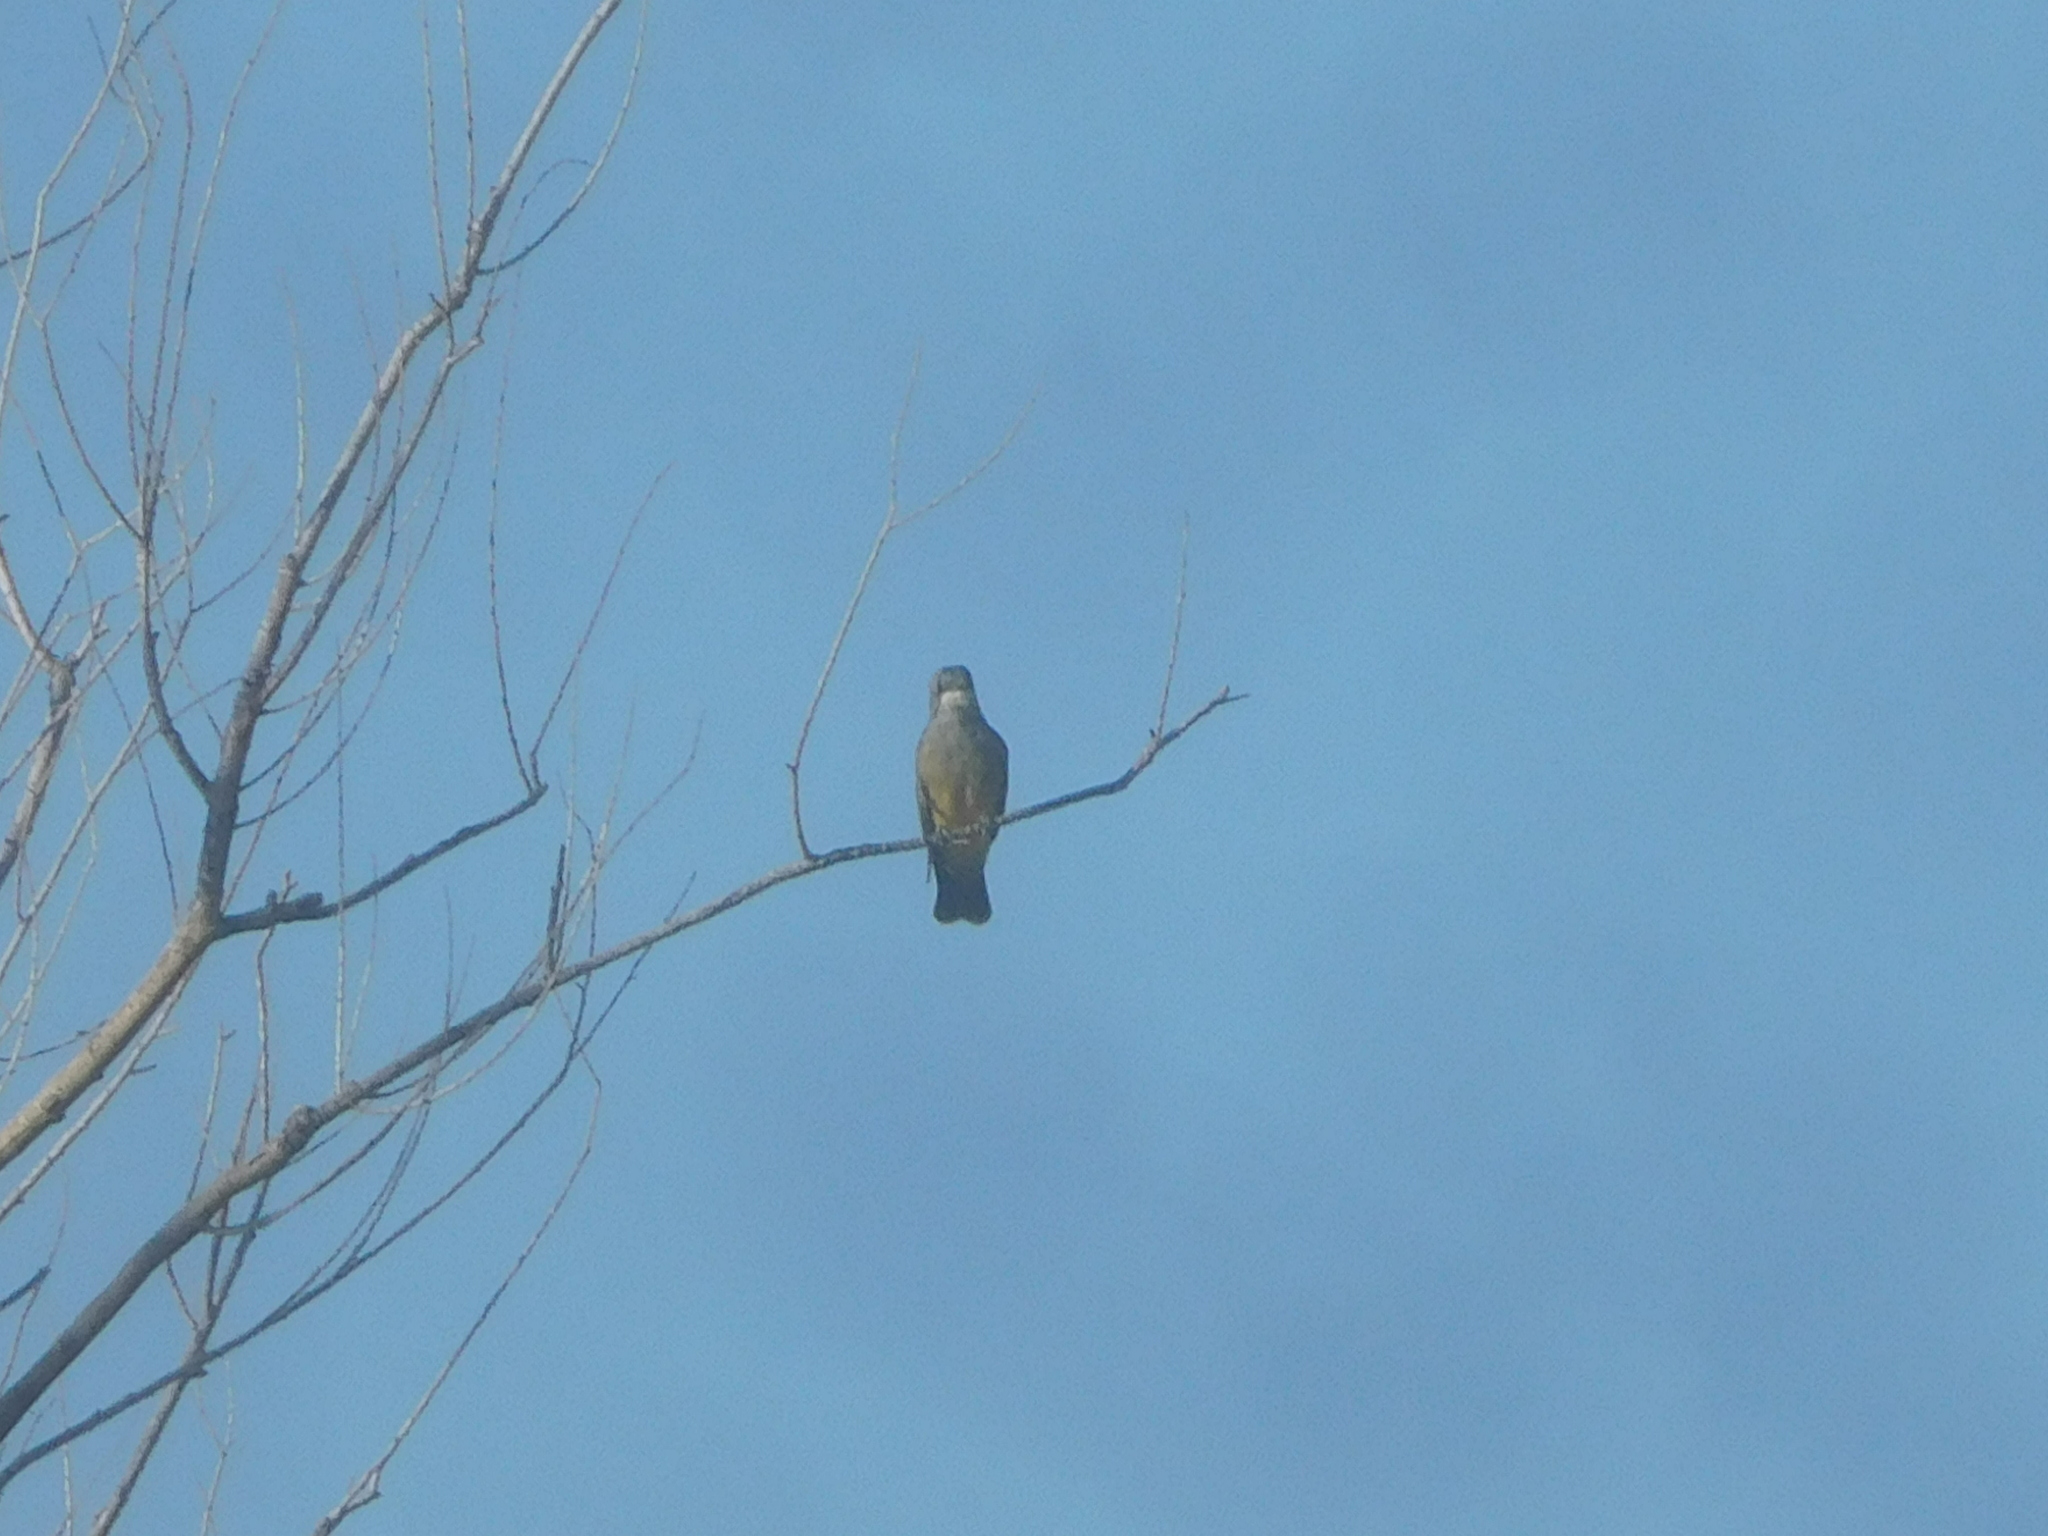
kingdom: Animalia
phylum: Chordata
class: Aves
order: Passeriformes
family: Tyrannidae
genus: Tyrannus
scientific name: Tyrannus vociferans
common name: Cassin's kingbird
